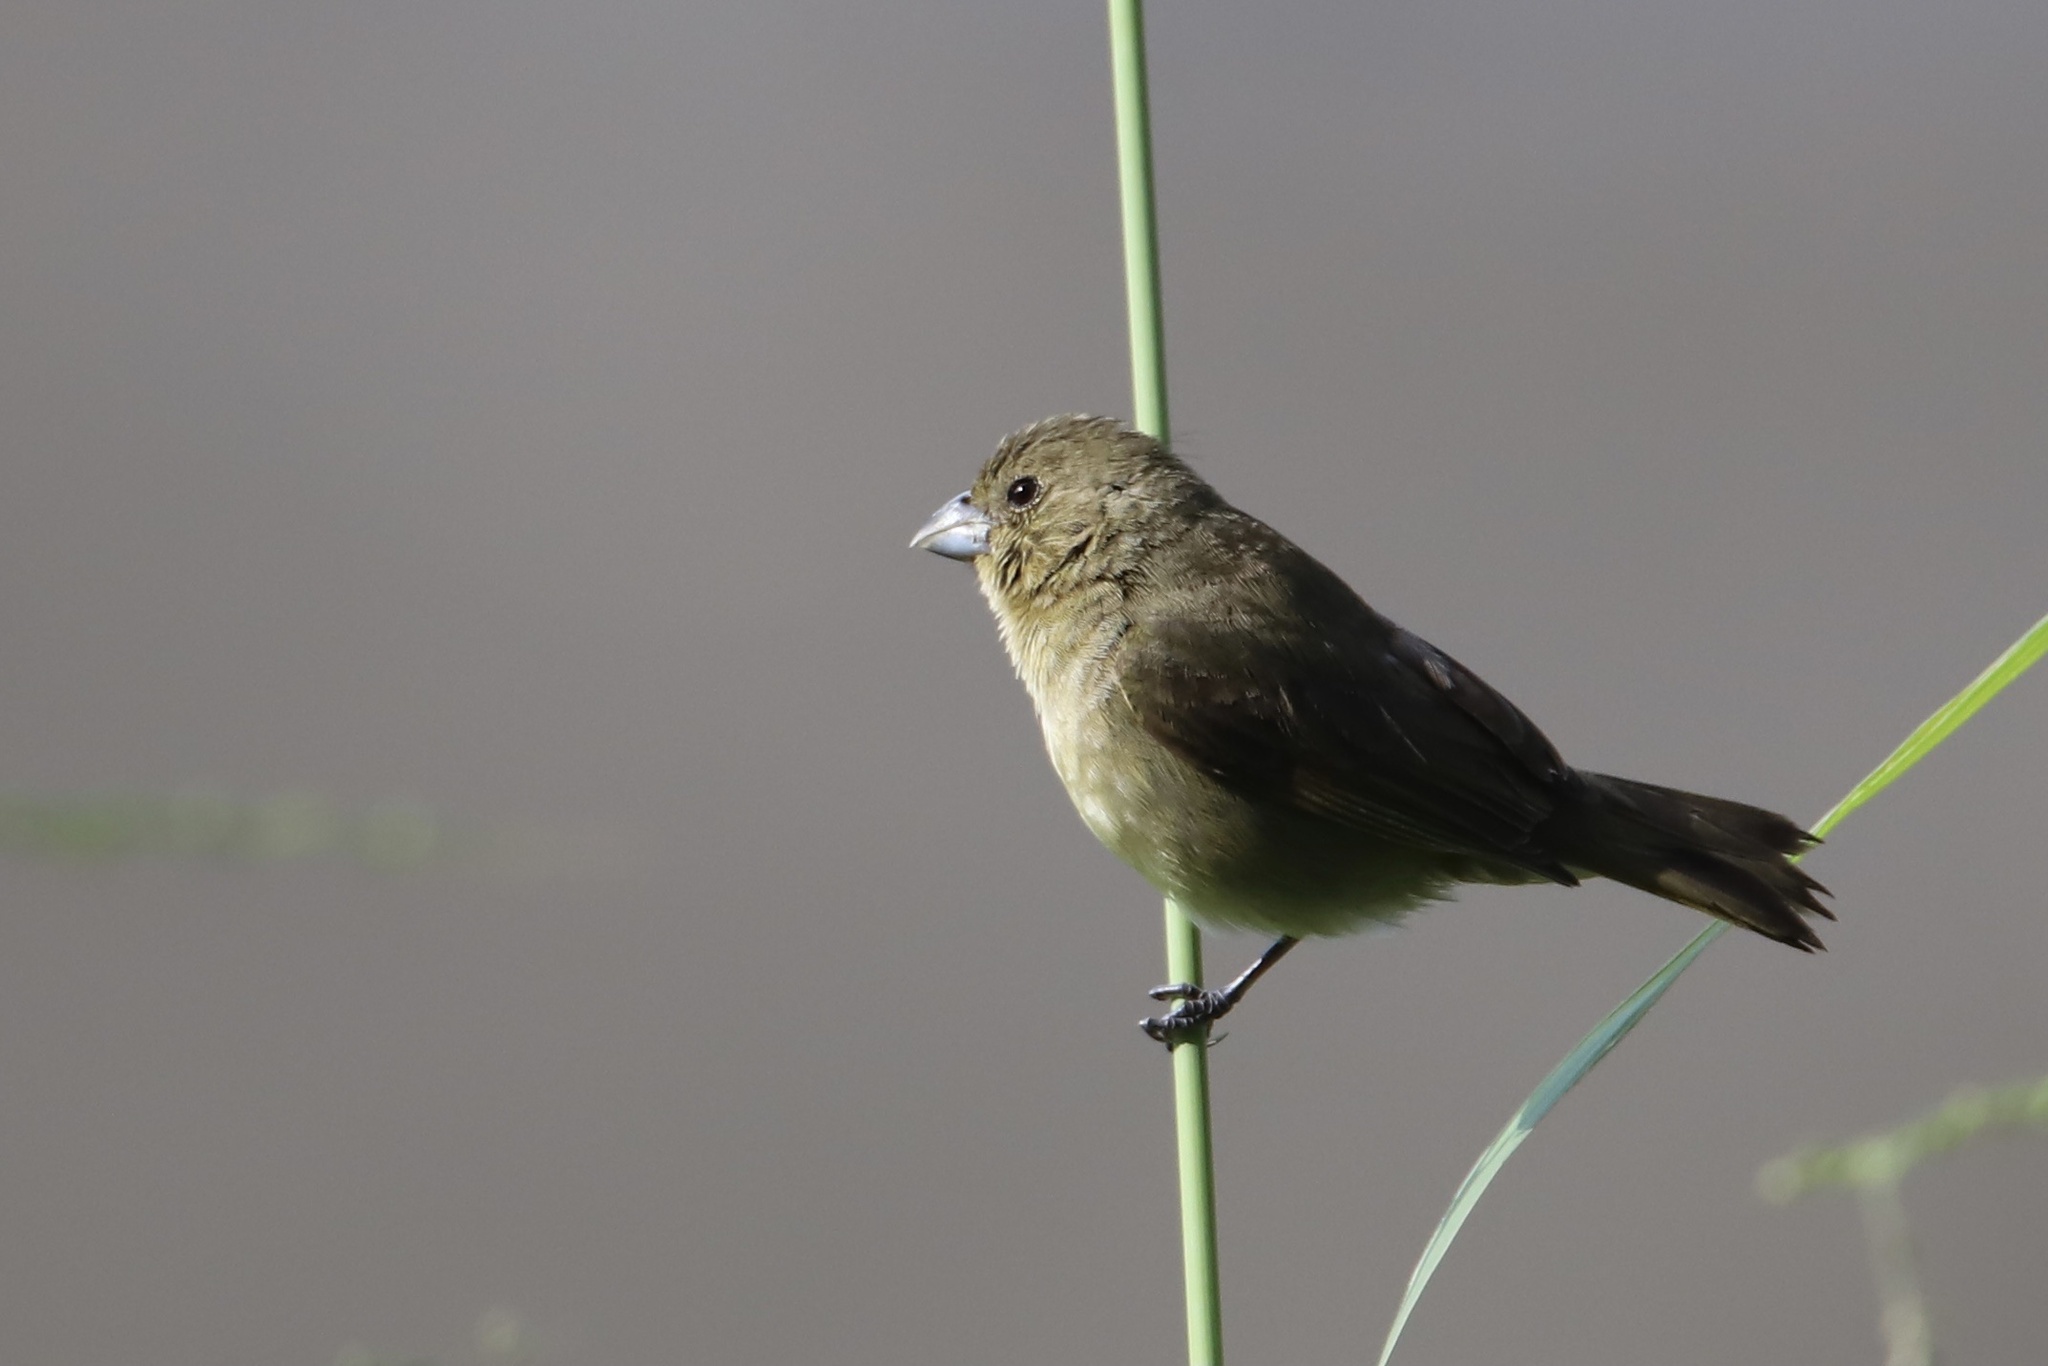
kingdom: Animalia
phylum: Chordata
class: Aves
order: Passeriformes
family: Thraupidae
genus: Sporophila
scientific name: Sporophila nigricollis
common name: Yellow-bellied seedeater
